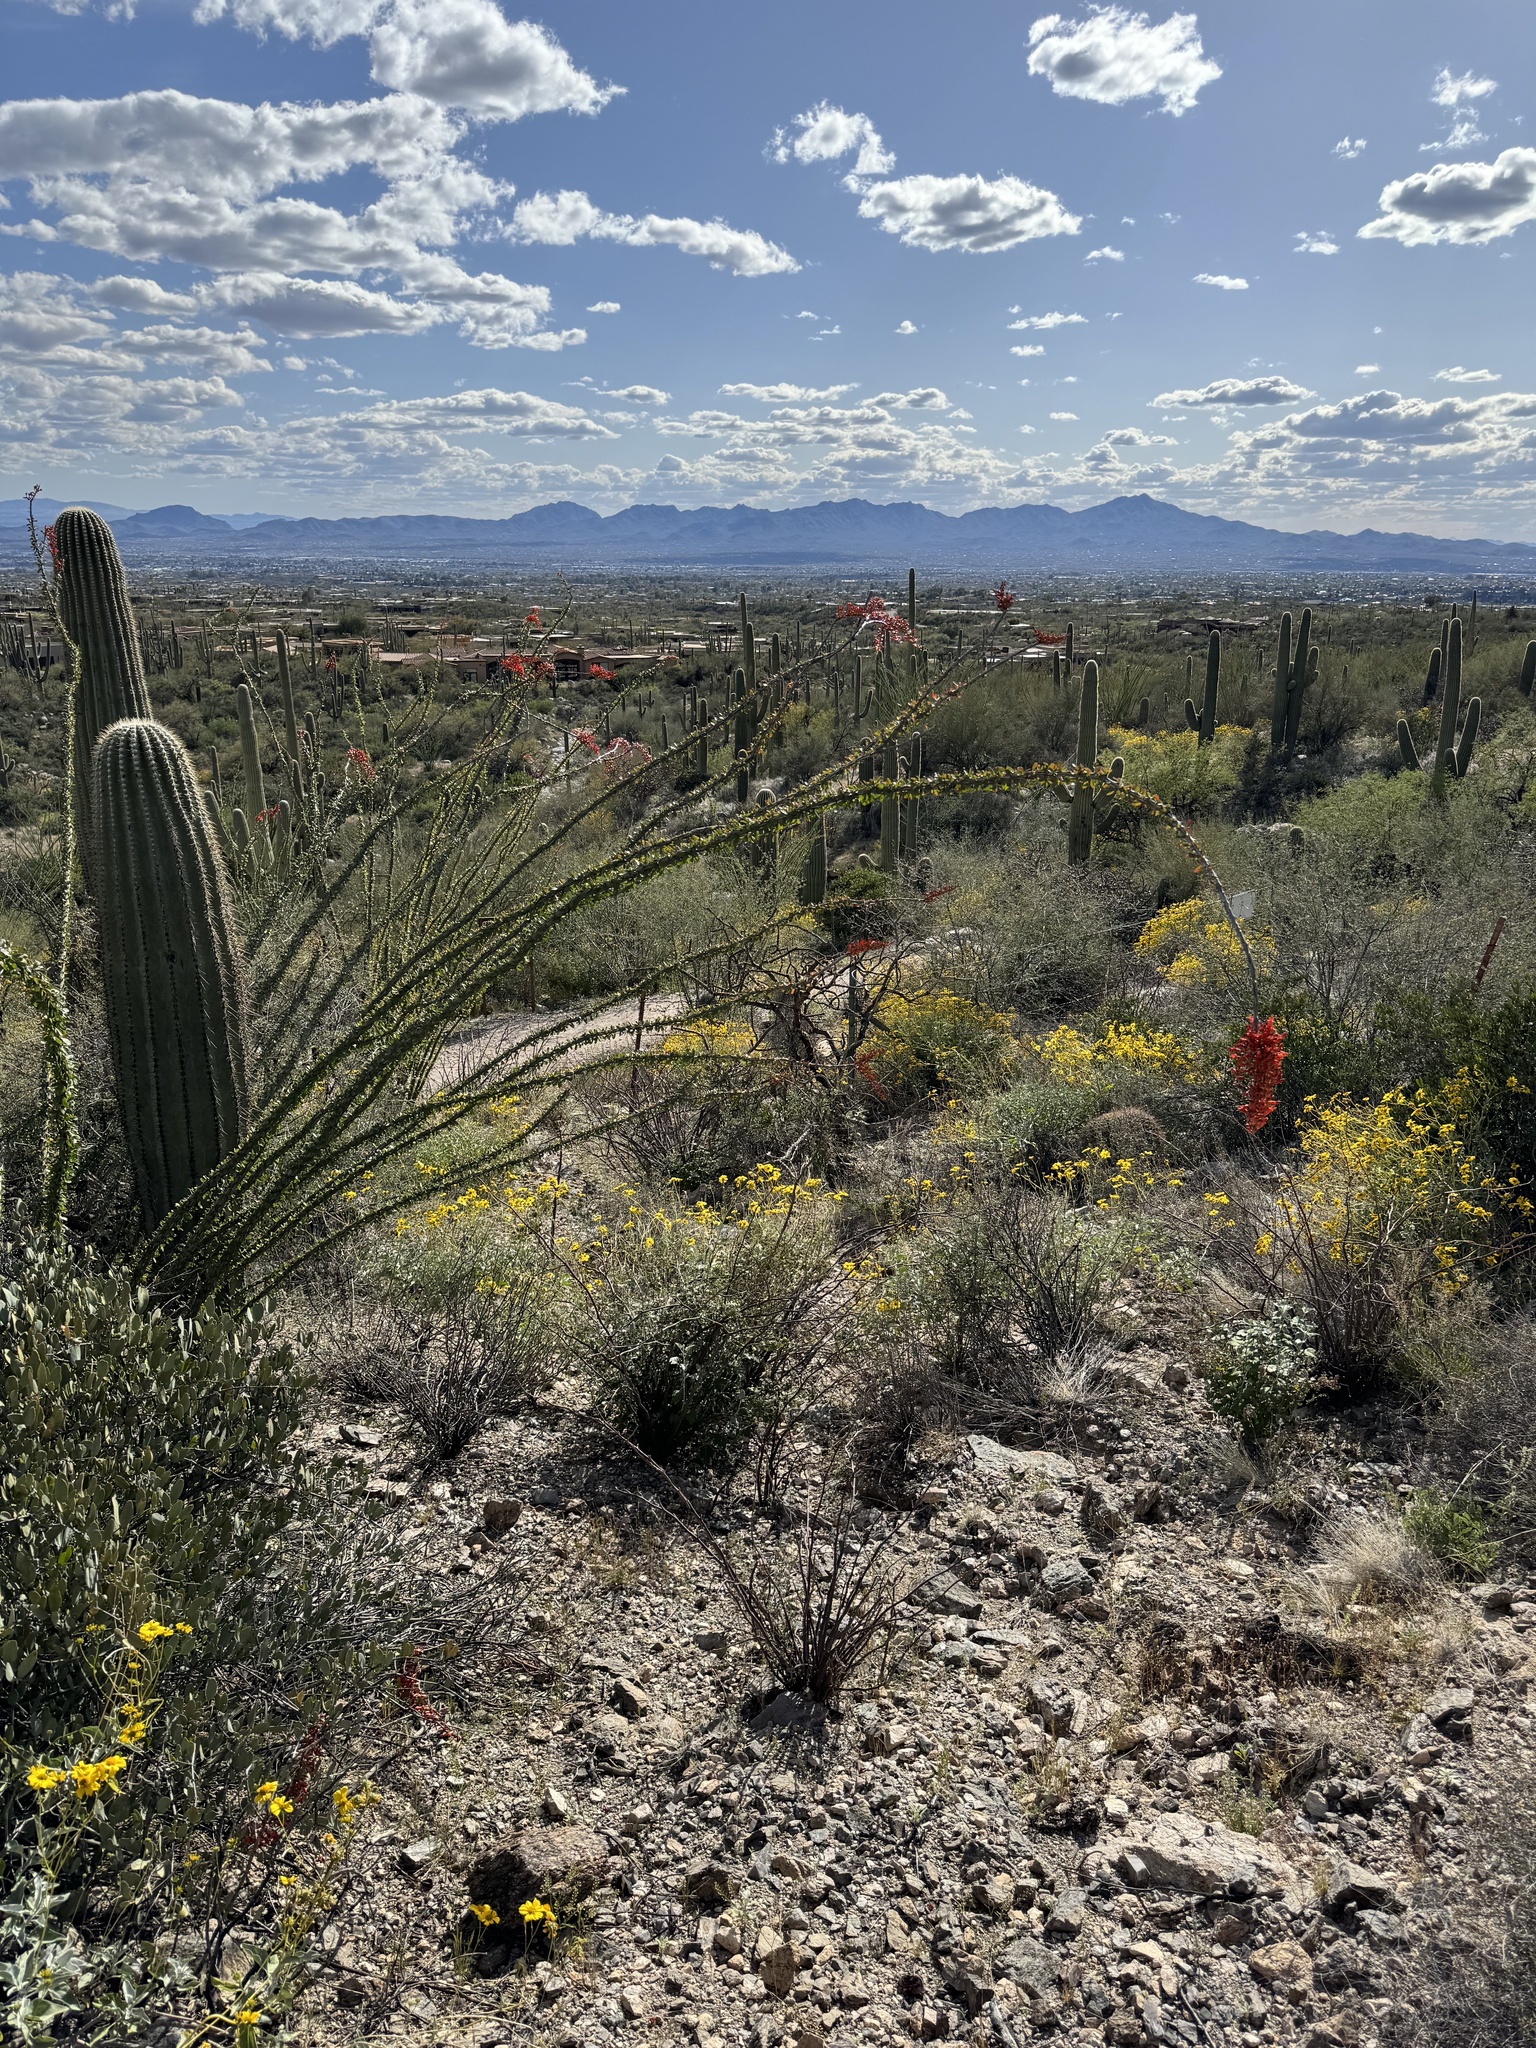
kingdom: Plantae
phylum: Tracheophyta
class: Magnoliopsida
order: Ericales
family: Fouquieriaceae
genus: Fouquieria
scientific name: Fouquieria splendens
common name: Vine-cactus
